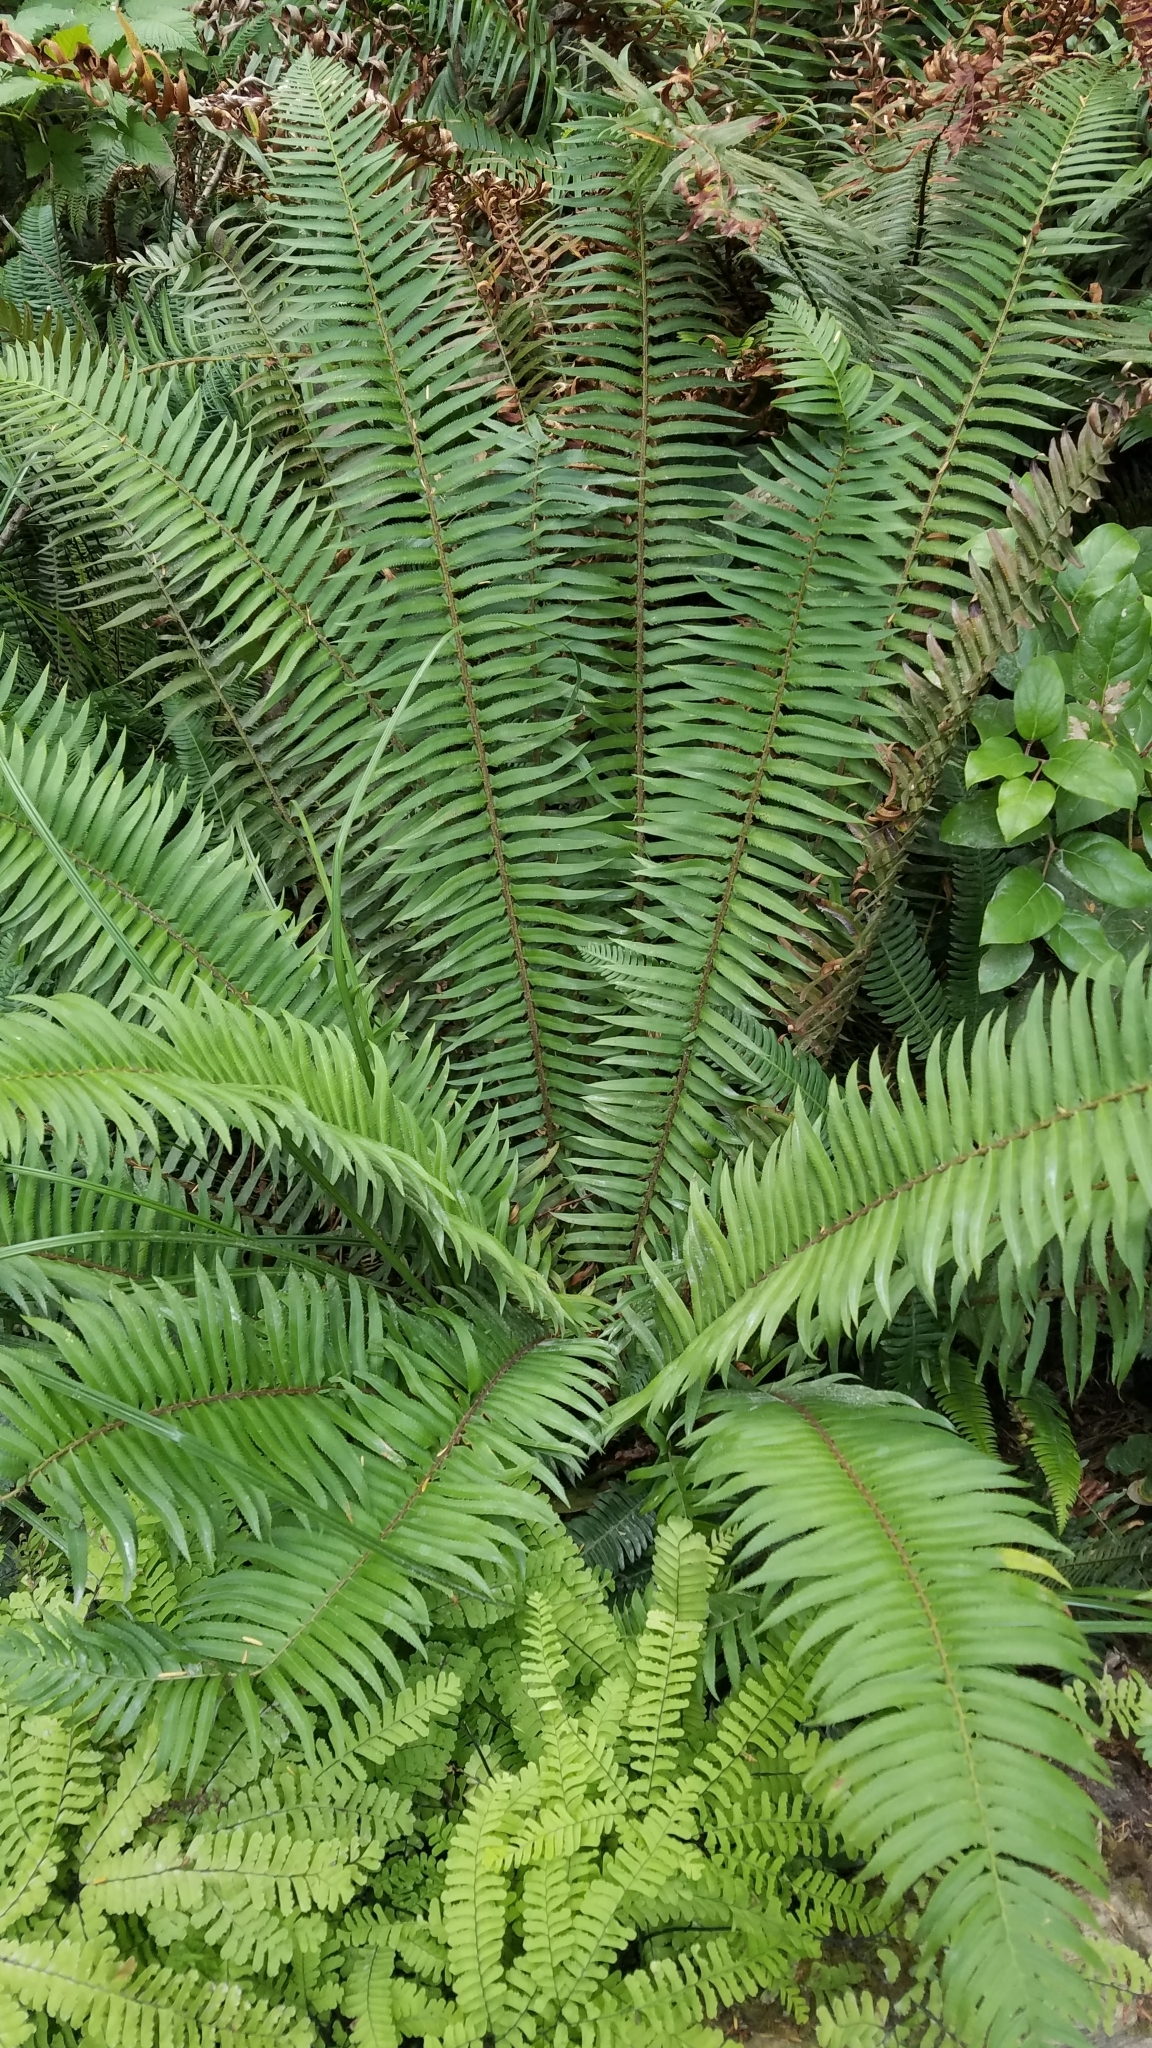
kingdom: Plantae
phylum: Tracheophyta
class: Polypodiopsida
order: Polypodiales
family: Dryopteridaceae
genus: Polystichum
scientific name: Polystichum munitum
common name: Western sword-fern
